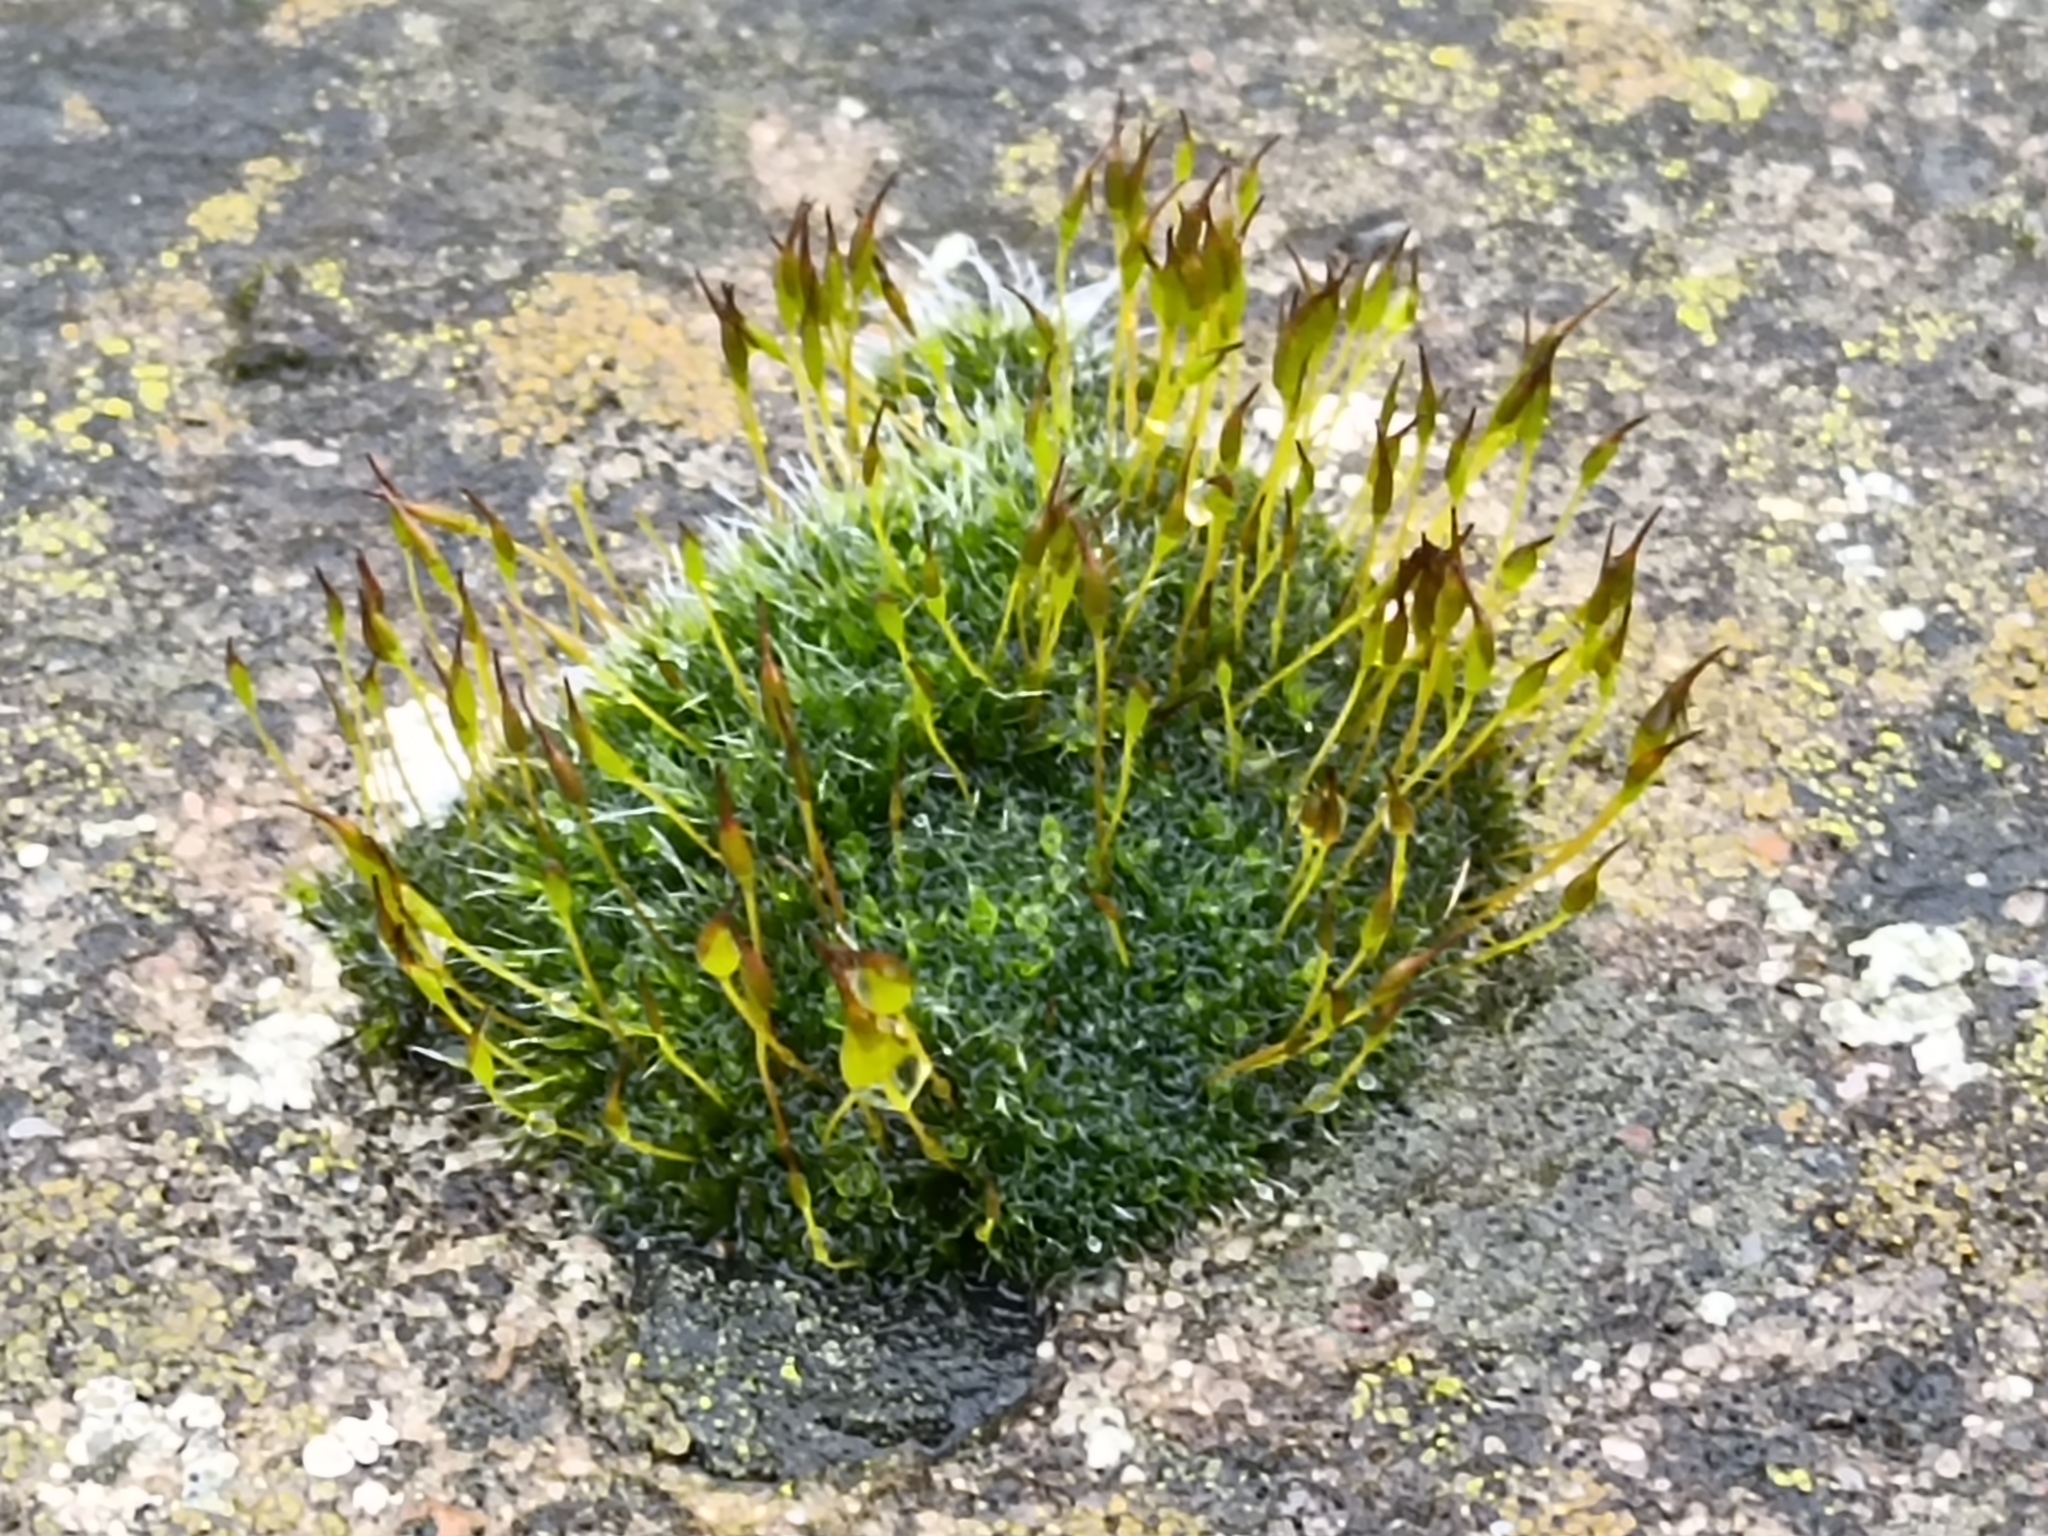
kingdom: Plantae
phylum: Bryophyta
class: Bryopsida
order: Pottiales
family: Pottiaceae
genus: Tortula
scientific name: Tortula muralis
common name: Wall screw-moss
